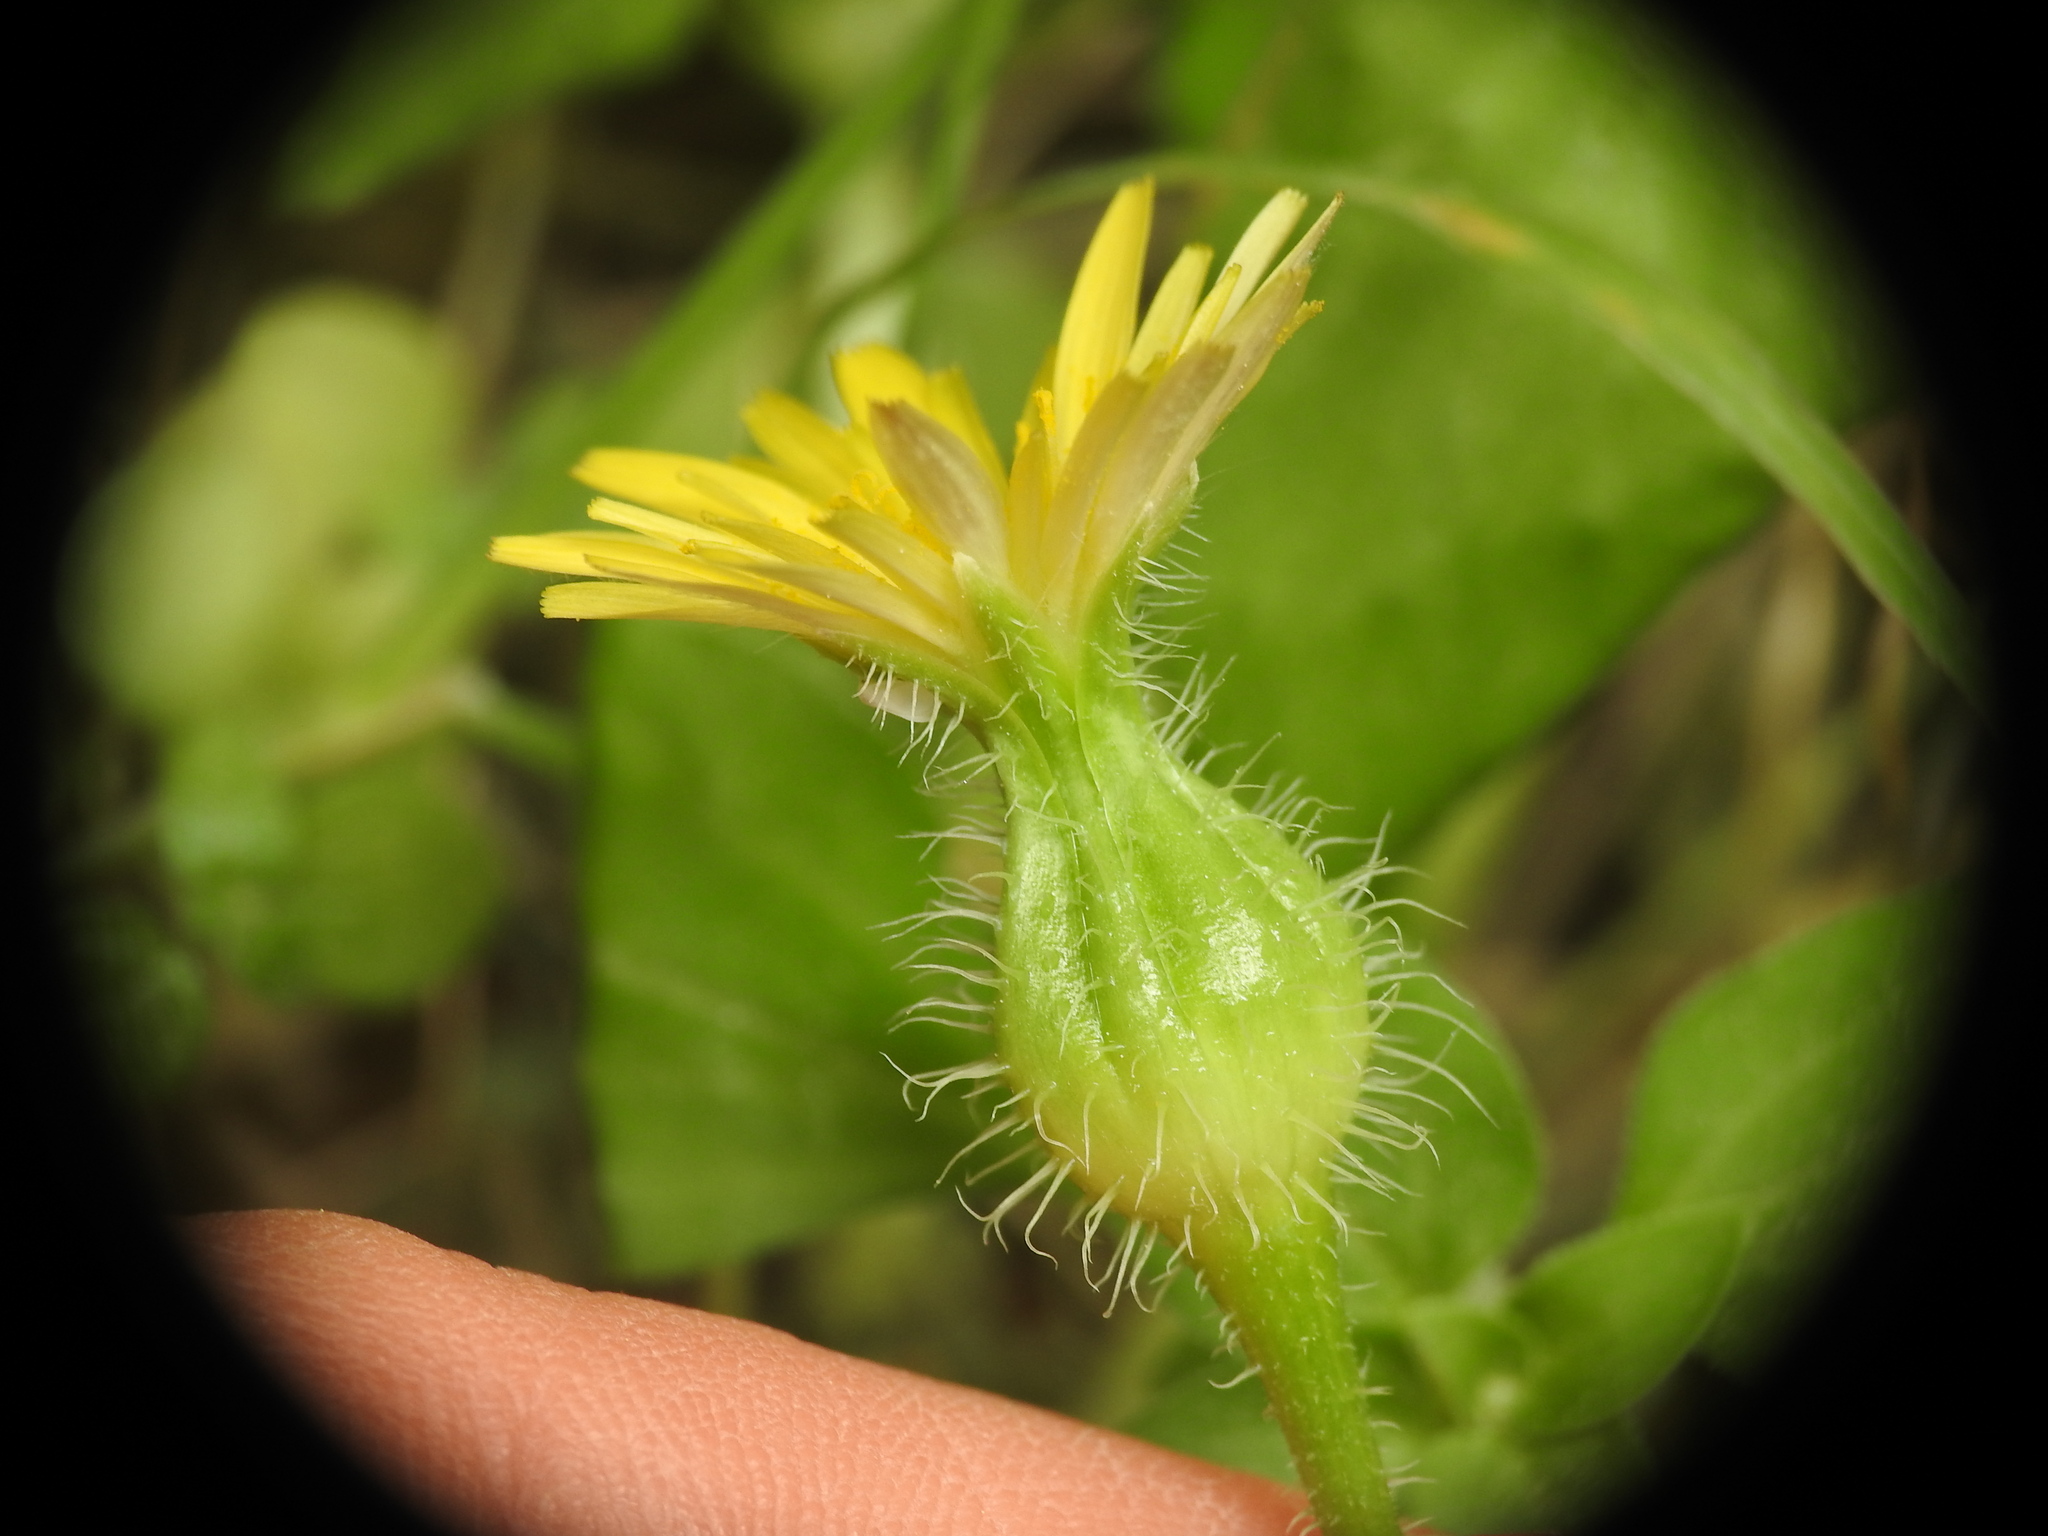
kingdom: Plantae
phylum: Tracheophyta
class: Magnoliopsida
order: Asterales
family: Asteraceae
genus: Urospermum
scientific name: Urospermum picroides
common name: False hawkbit
